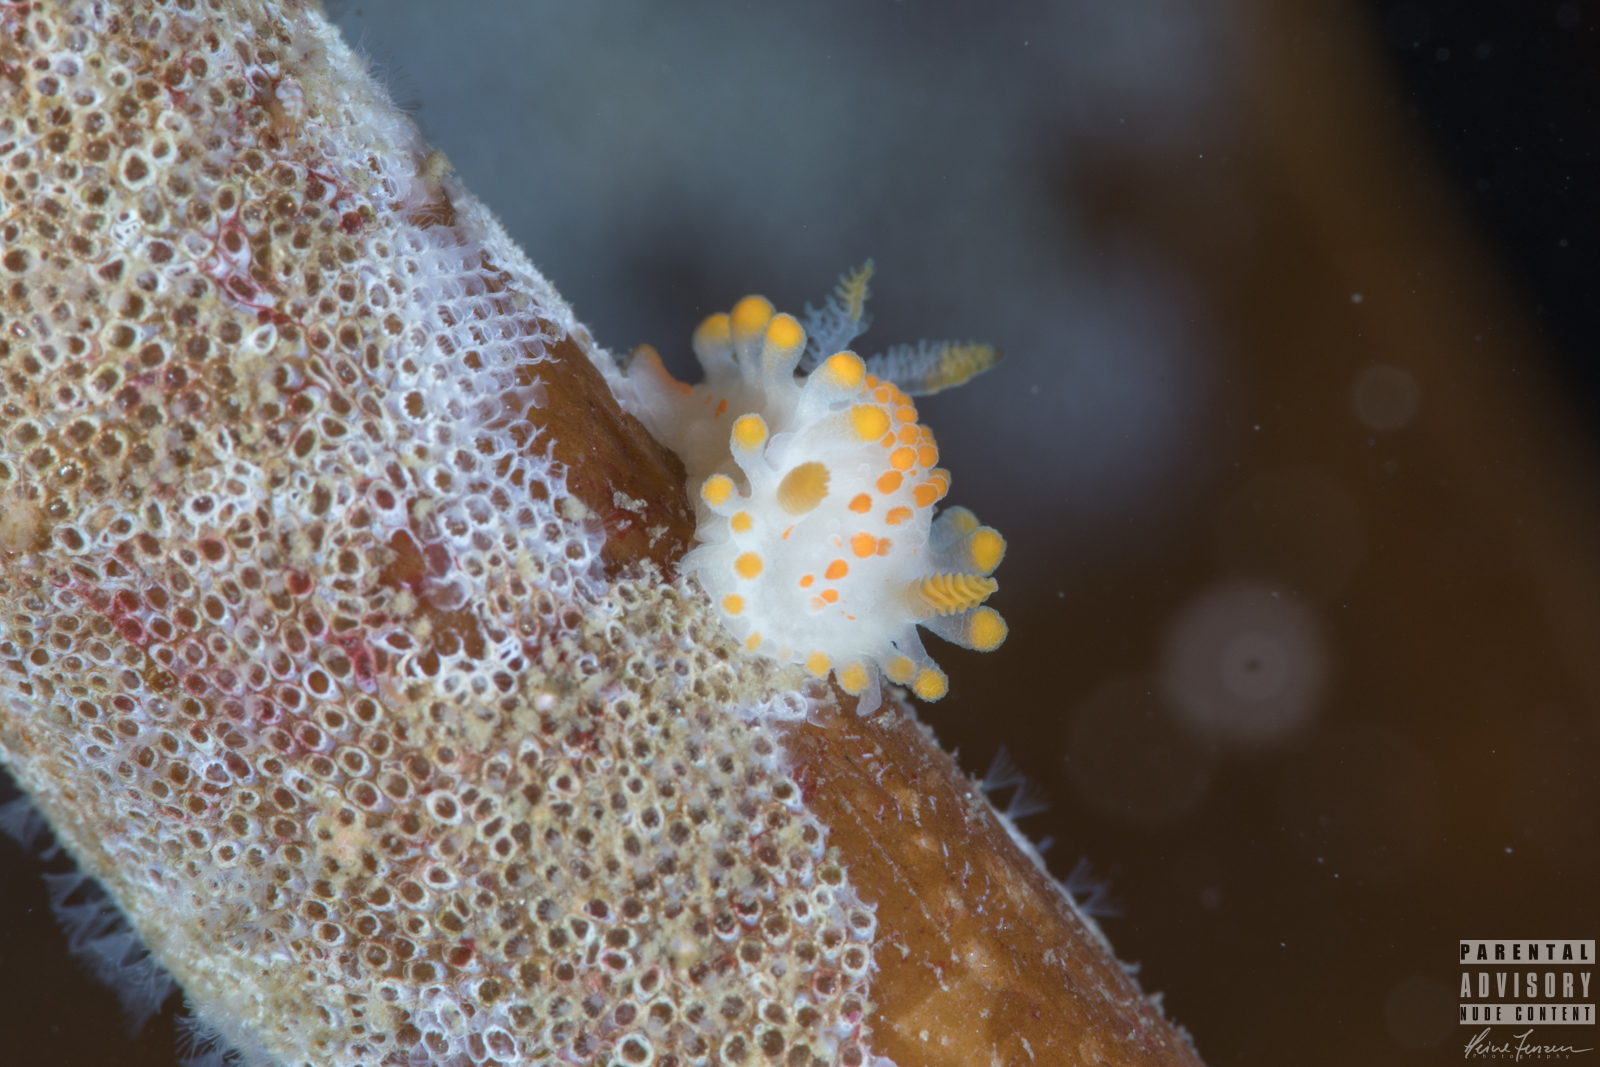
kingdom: Animalia
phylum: Mollusca
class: Gastropoda
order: Nudibranchia
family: Polyceridae
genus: Limacia
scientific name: Limacia clavigera
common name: Orange-clubbed sea slug
